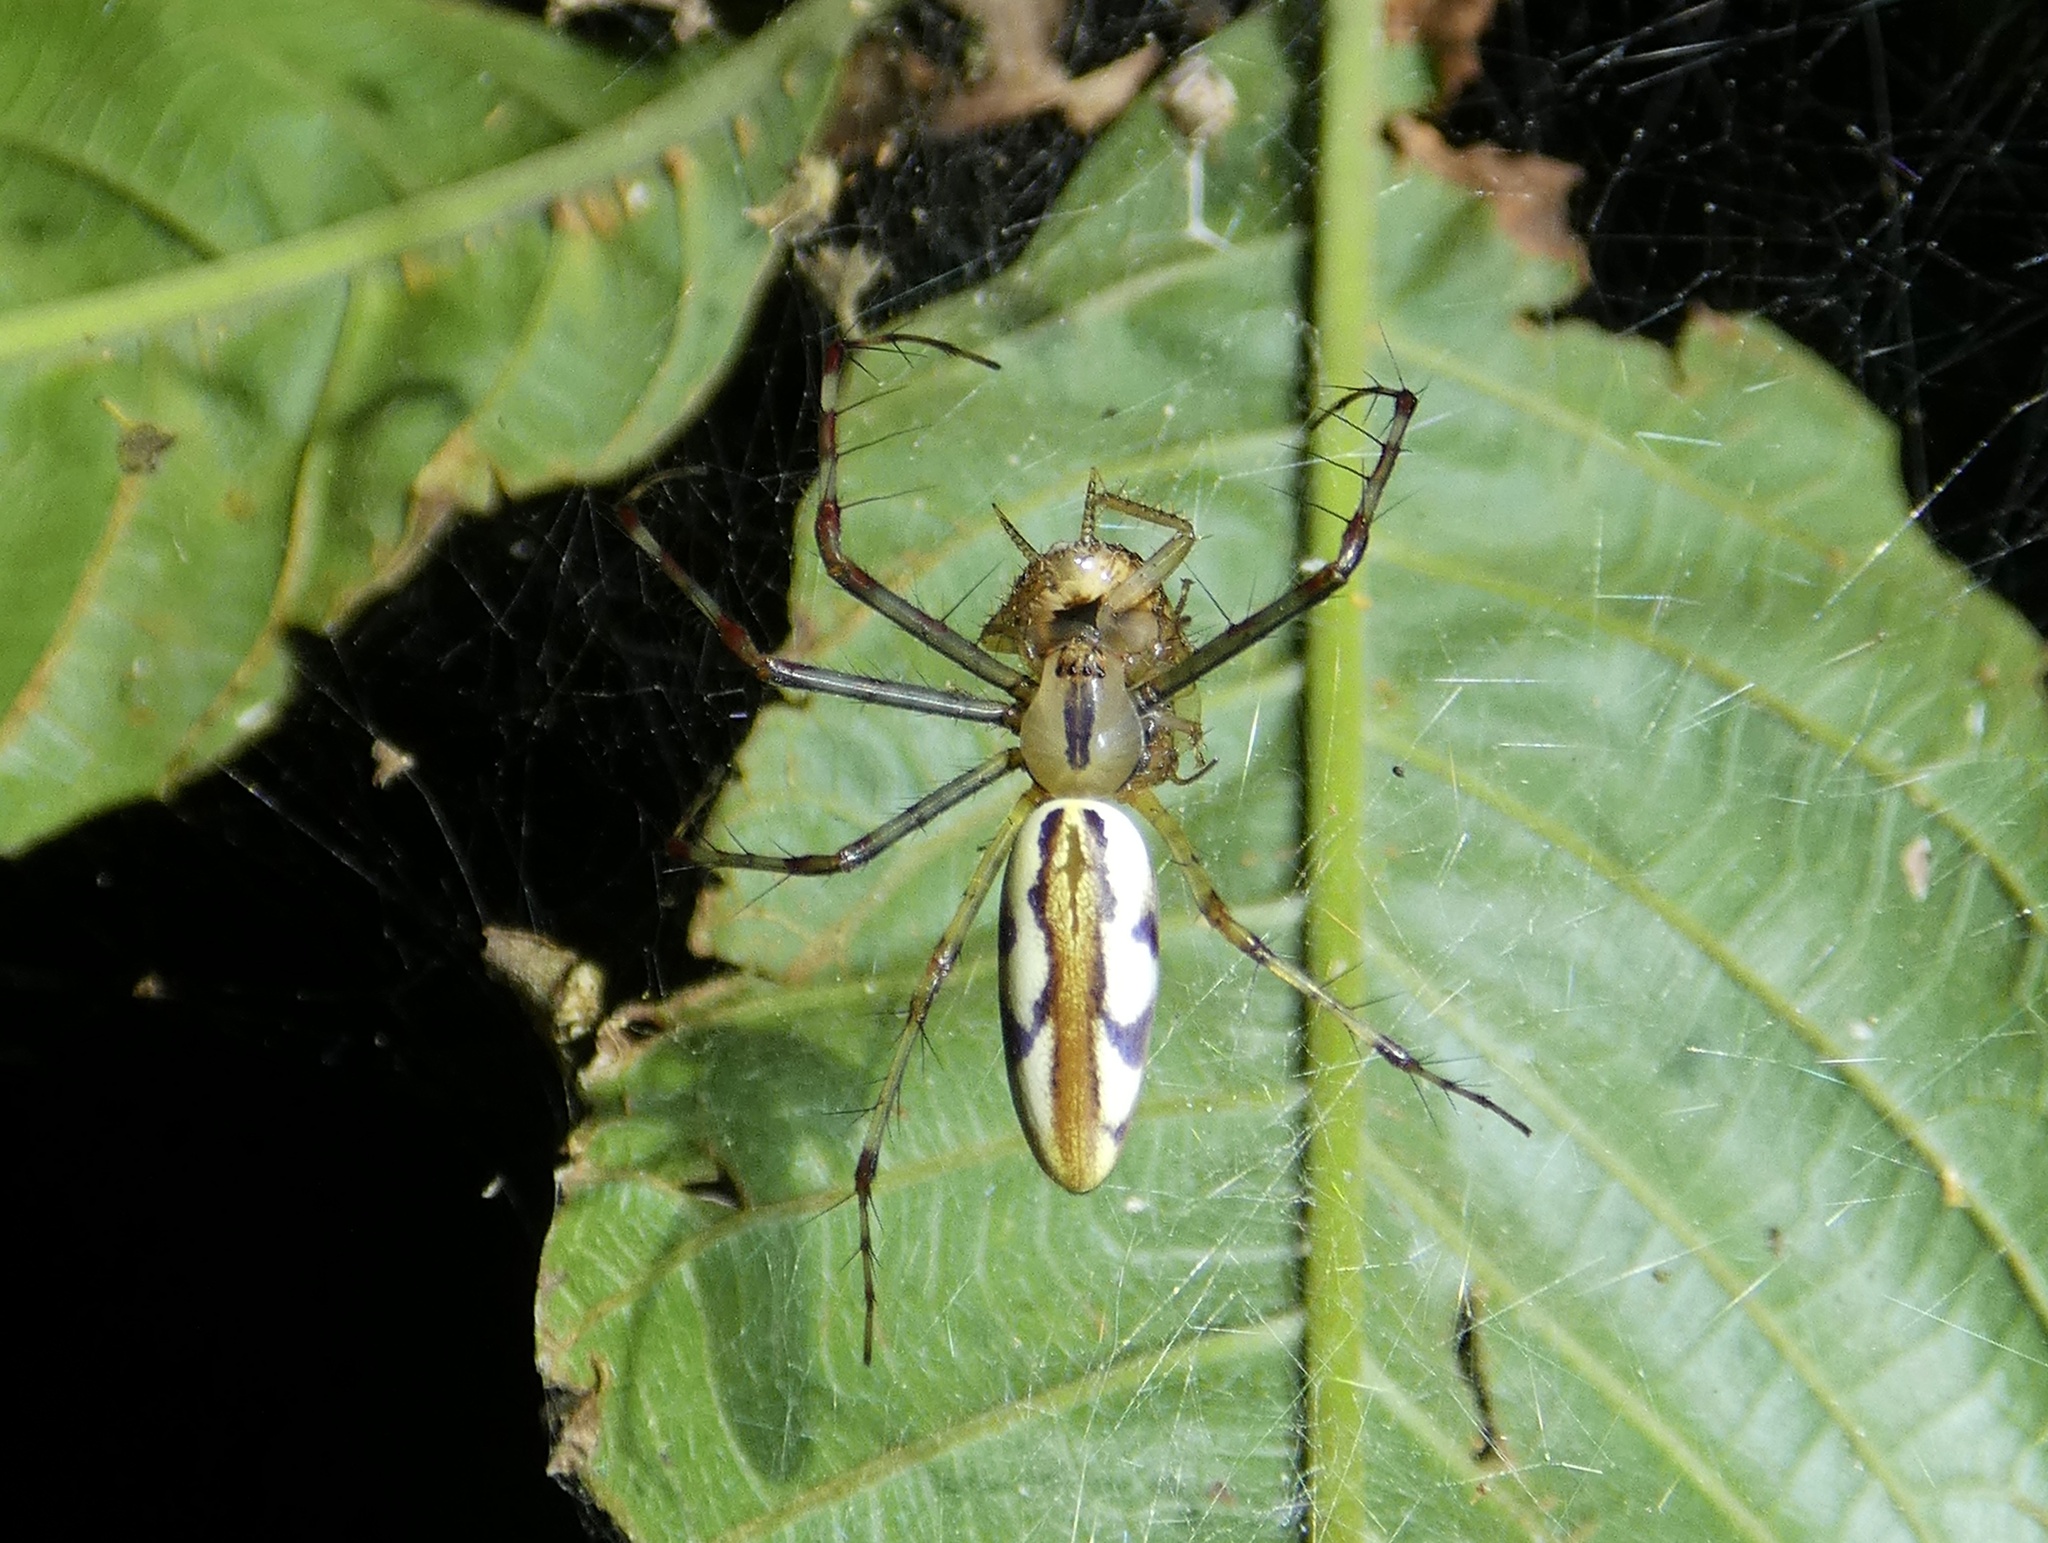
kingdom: Animalia
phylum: Arthropoda
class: Arachnida
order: Araneae
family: Oxyopidae
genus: Tapinillus
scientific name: Tapinillus longipes
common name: Lynx spiders
